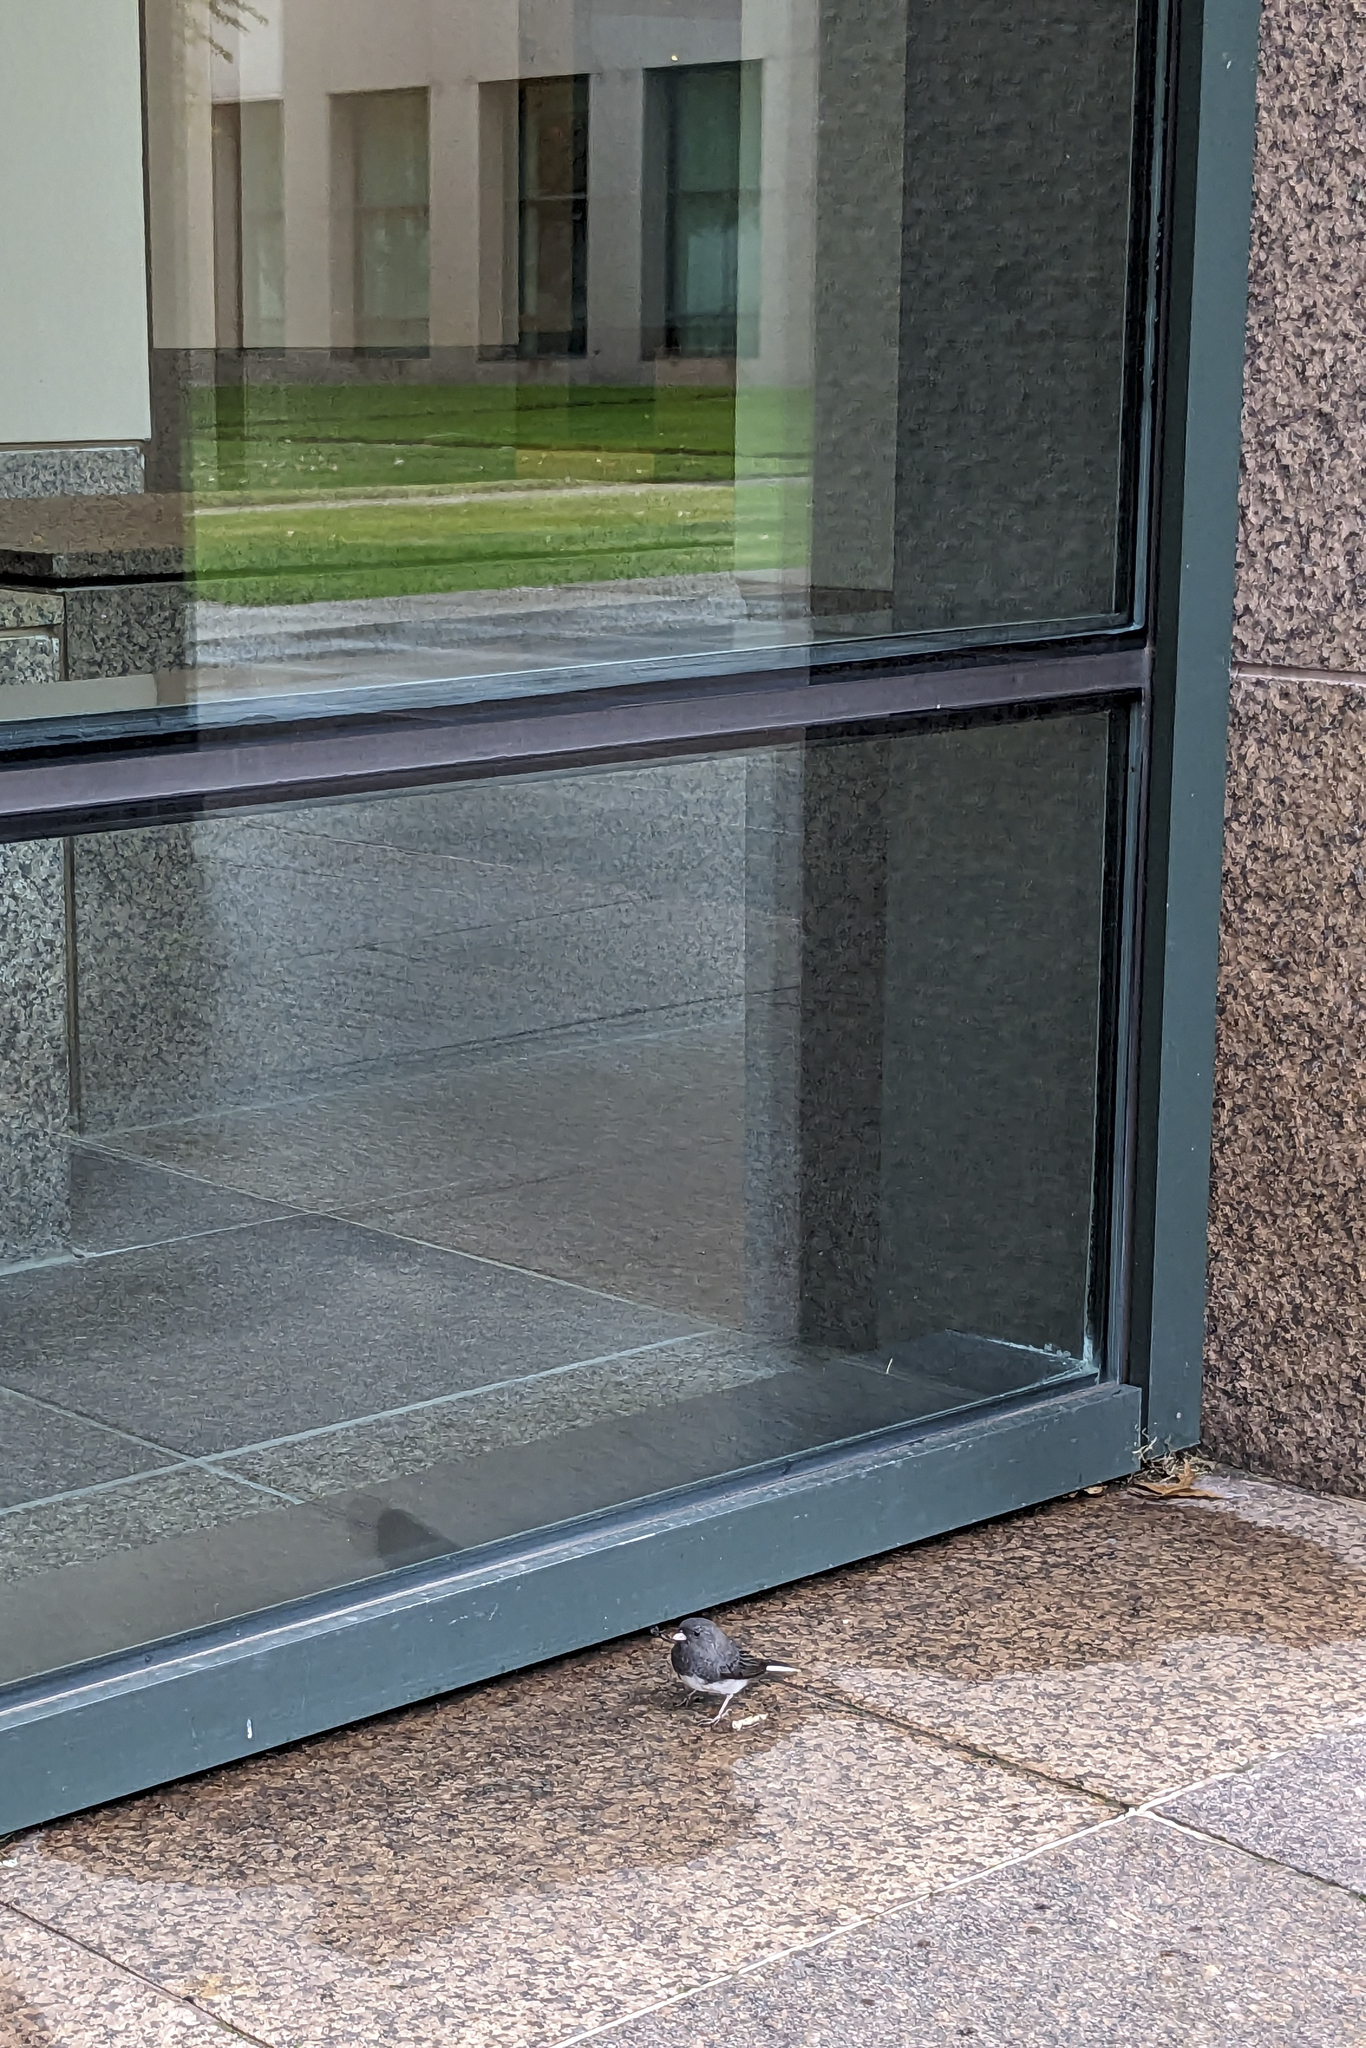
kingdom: Animalia
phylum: Chordata
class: Aves
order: Passeriformes
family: Passerellidae
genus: Junco
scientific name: Junco hyemalis
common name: Dark-eyed junco
